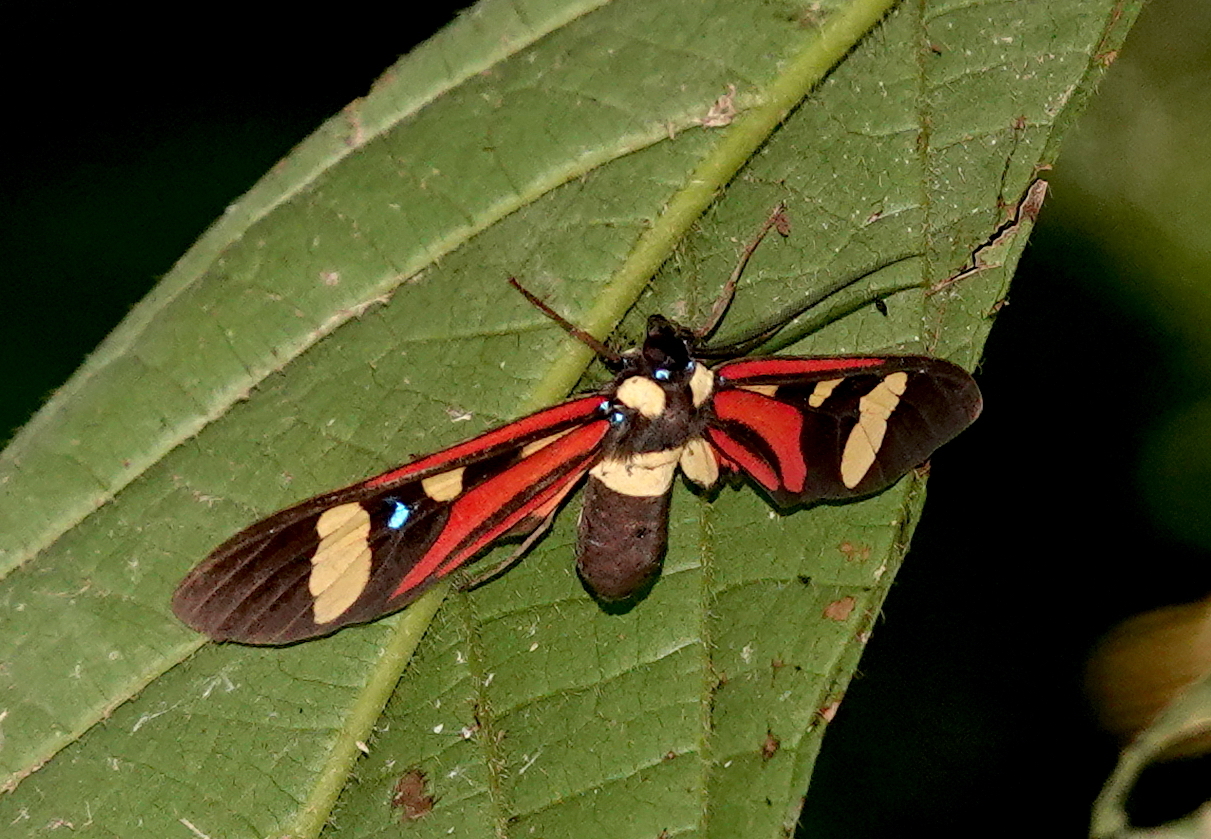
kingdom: Animalia
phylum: Arthropoda
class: Insecta
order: Lepidoptera
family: Erebidae
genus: Histioea
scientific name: Histioea bellatrix
